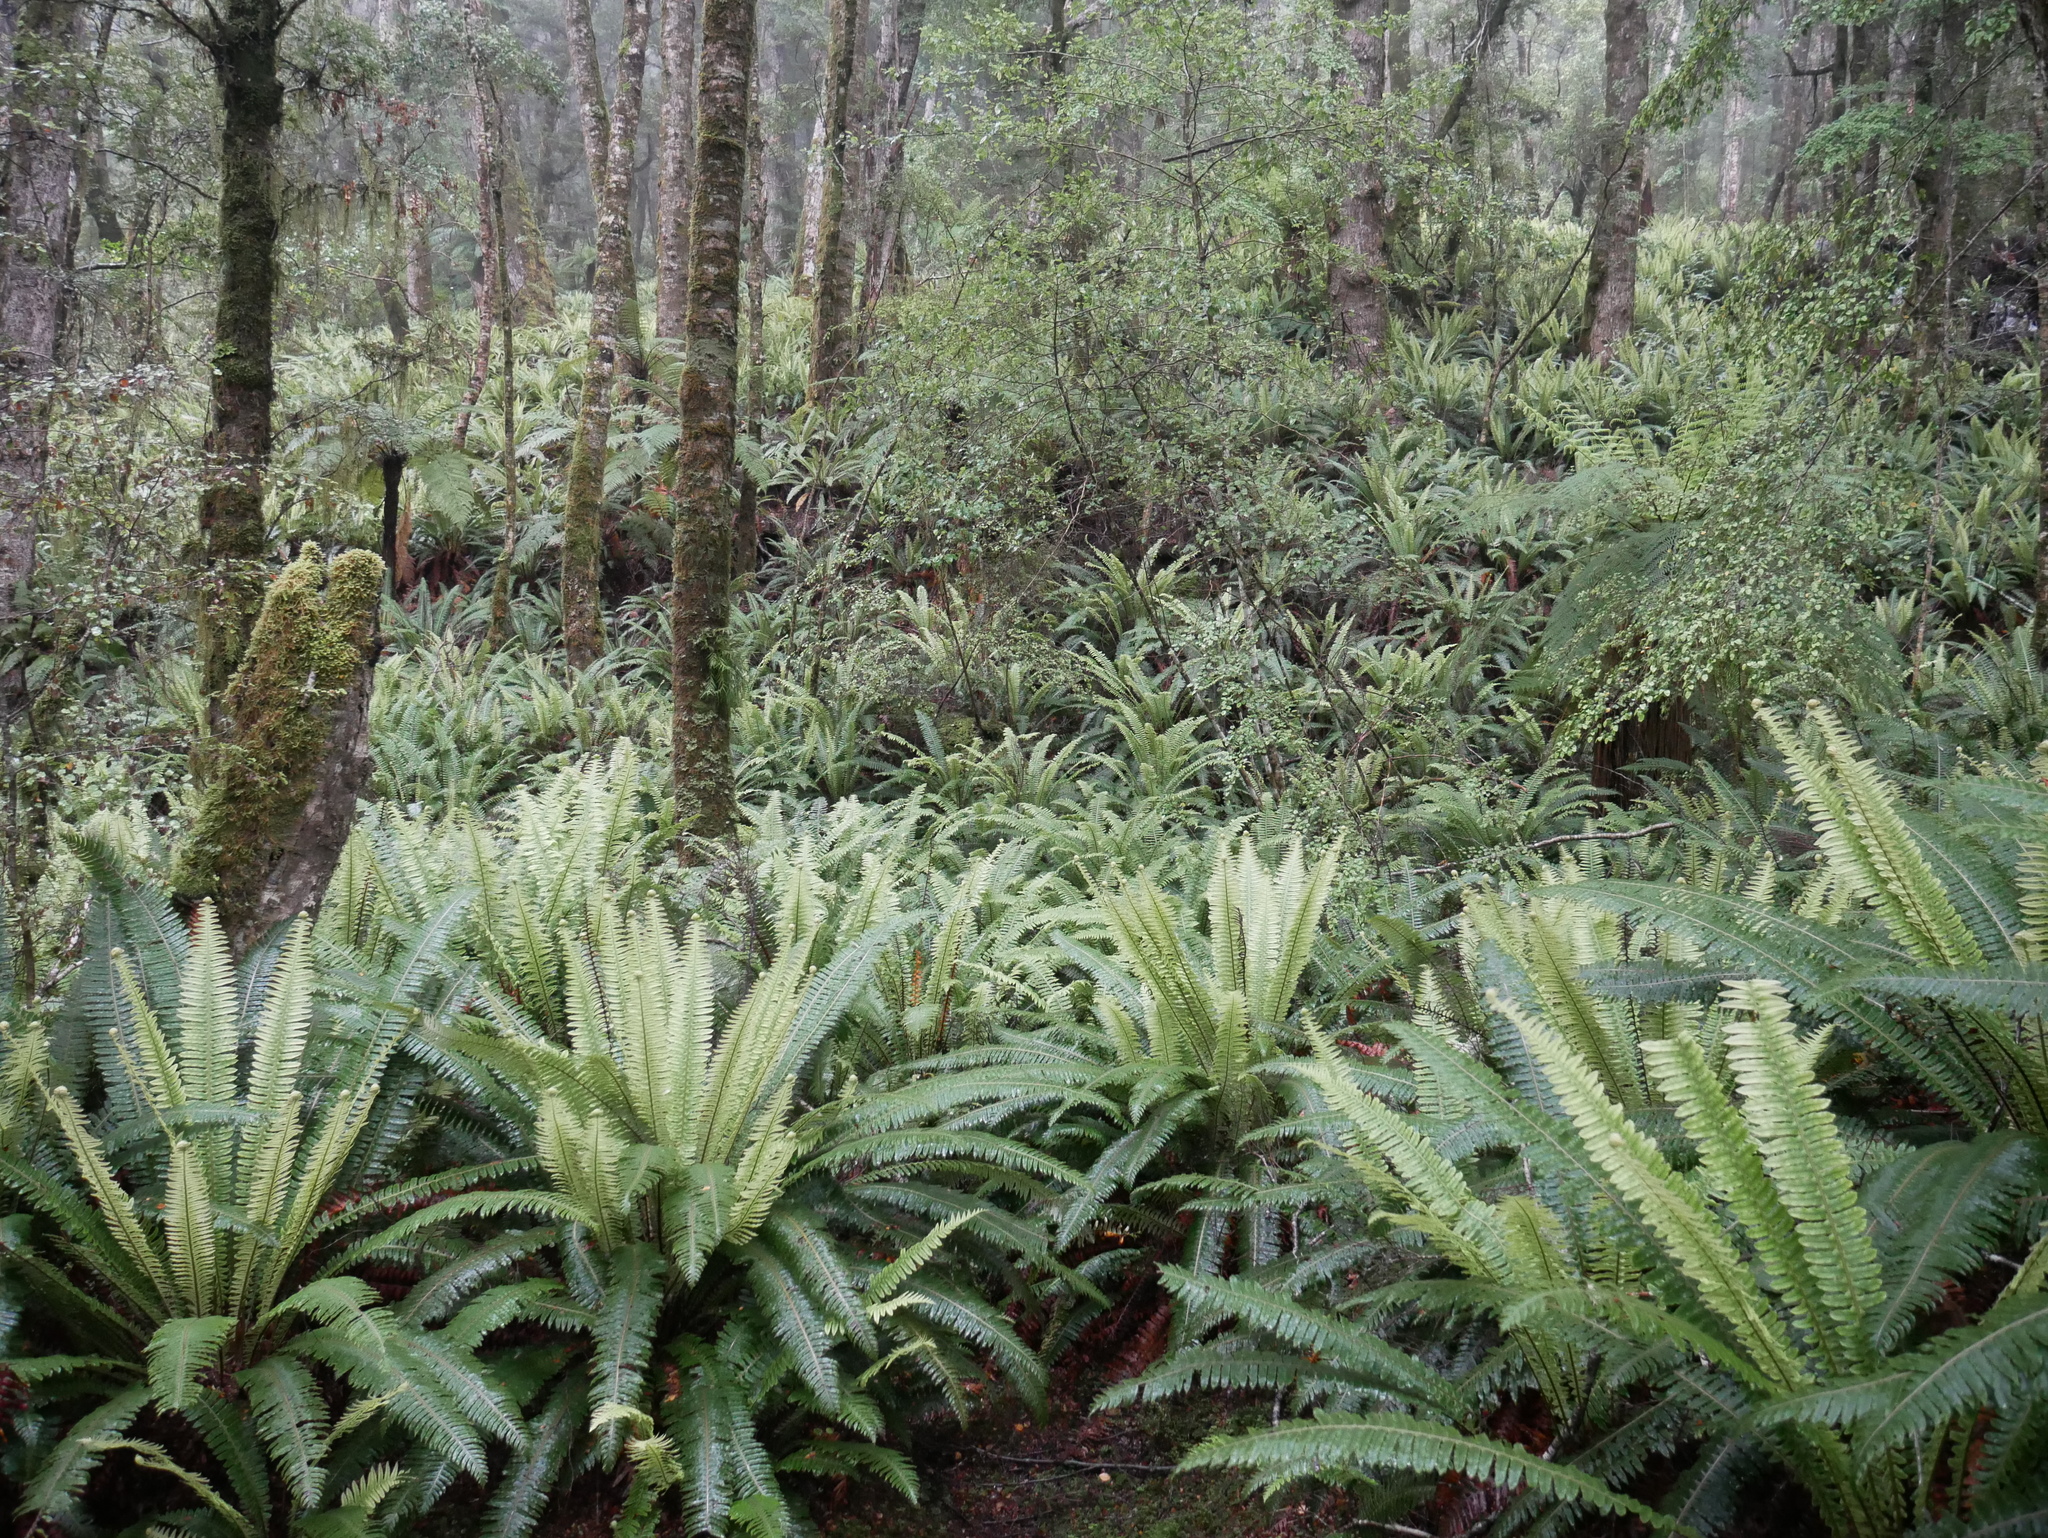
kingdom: Plantae
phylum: Tracheophyta
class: Polypodiopsida
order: Polypodiales
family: Blechnaceae
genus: Lomaria
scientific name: Lomaria discolor
